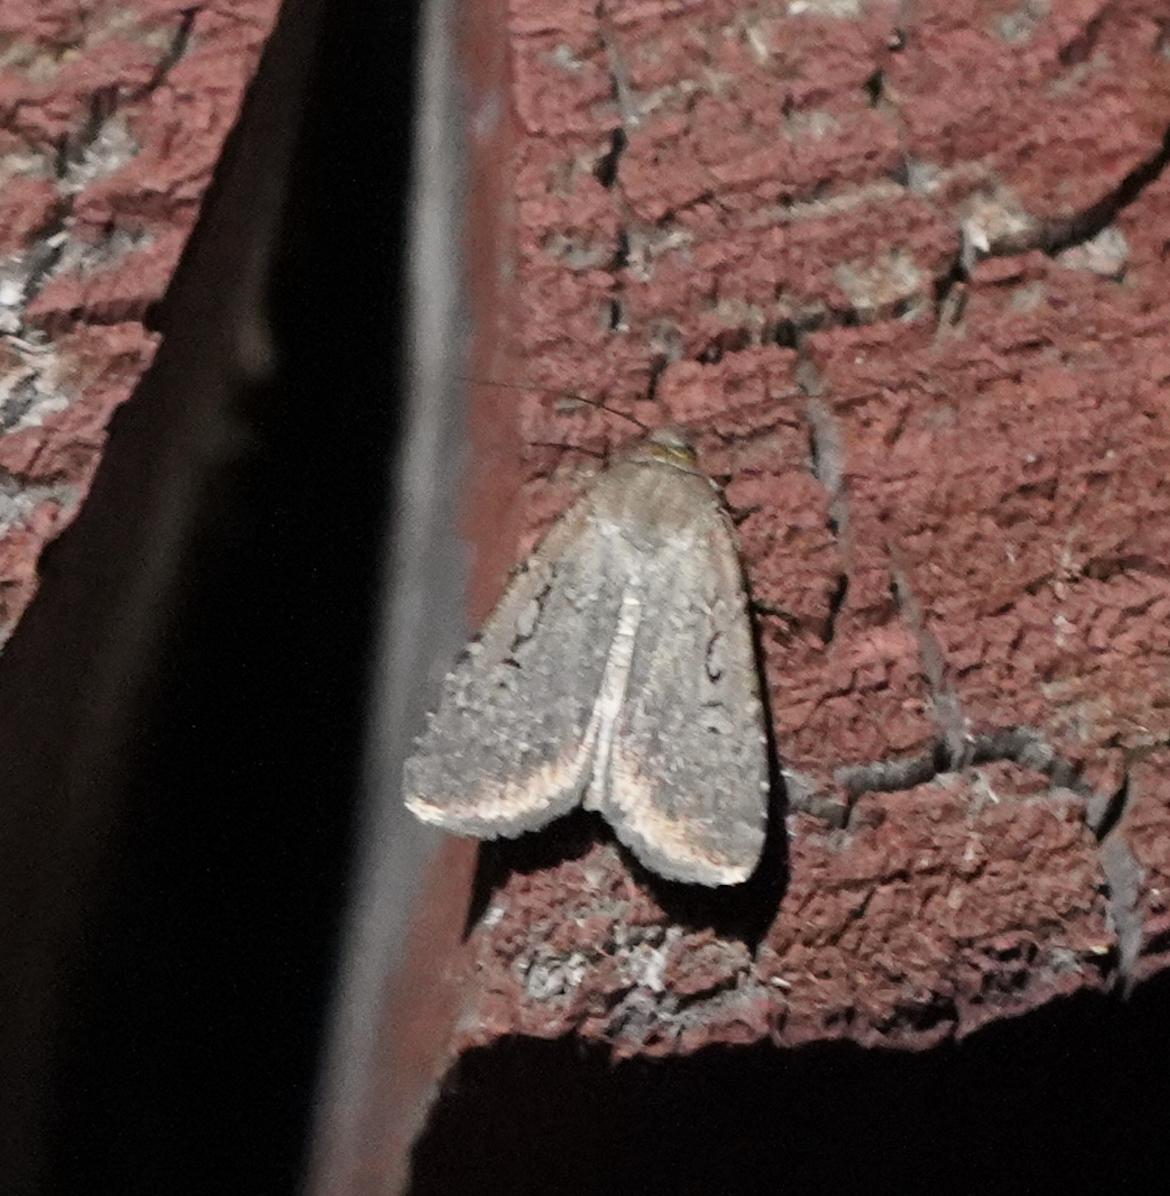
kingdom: Animalia
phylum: Arthropoda
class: Insecta
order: Lepidoptera
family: Noctuidae
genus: Spaelotis
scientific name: Spaelotis clandestina
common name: Clandestine dart
